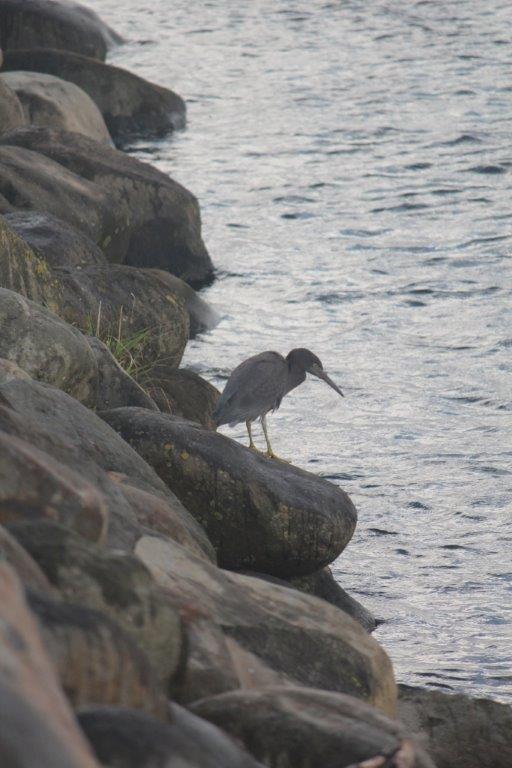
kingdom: Animalia
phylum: Chordata
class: Aves
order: Pelecaniformes
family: Ardeidae
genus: Egretta
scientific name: Egretta sacra
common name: Pacific reef heron
